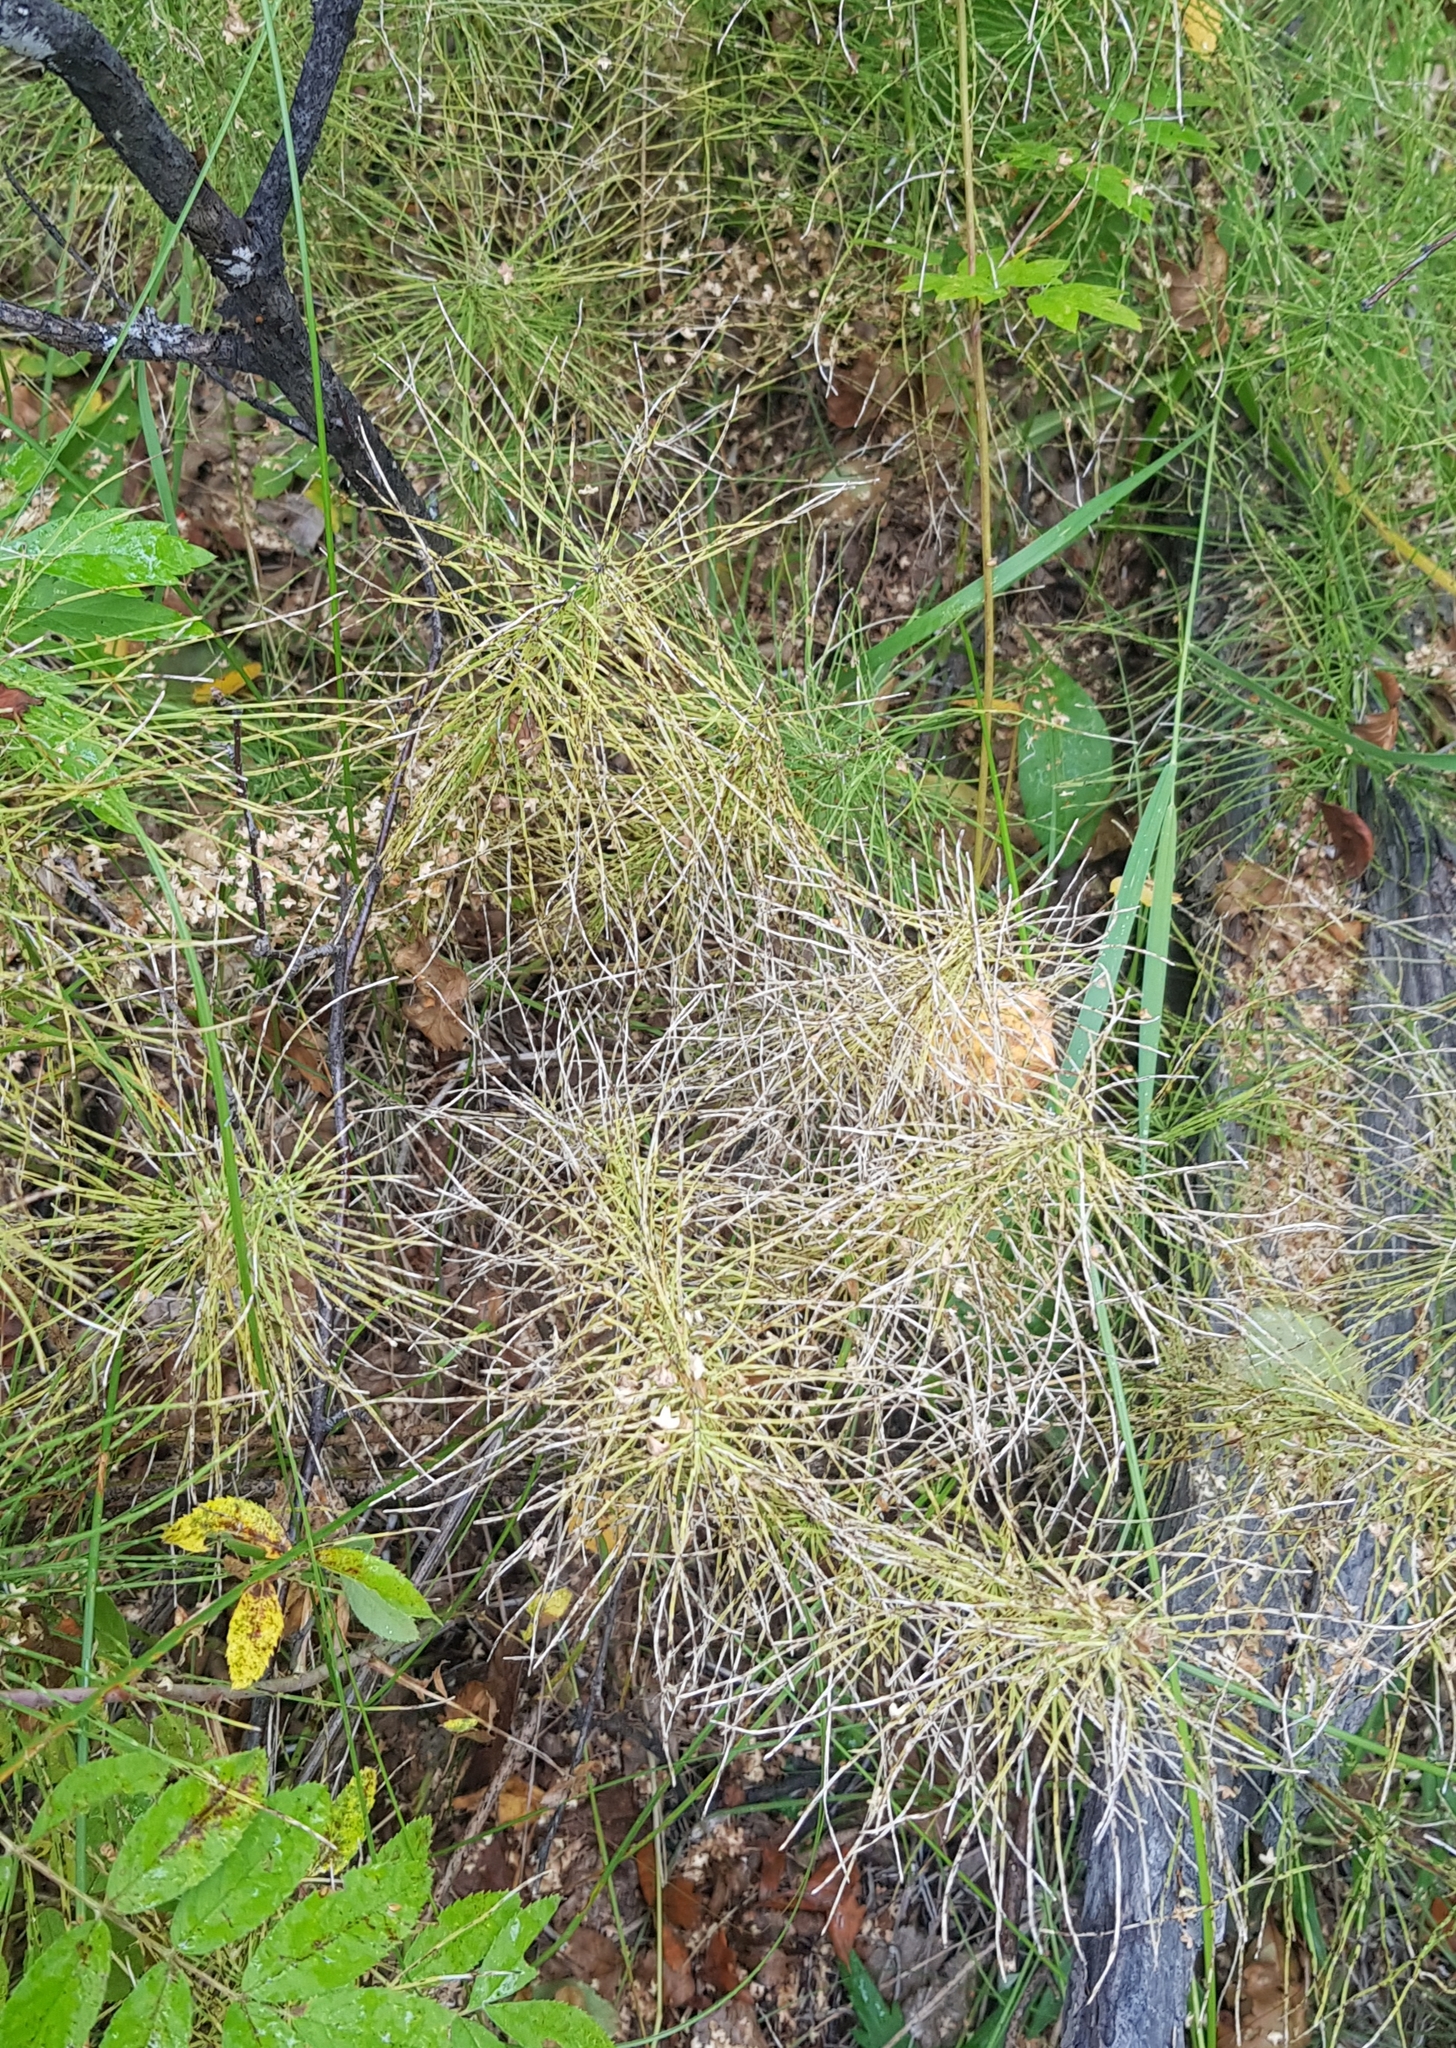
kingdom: Plantae
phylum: Tracheophyta
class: Polypodiopsida
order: Equisetales
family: Equisetaceae
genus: Equisetum
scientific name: Equisetum fluviatile
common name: Water horsetail
